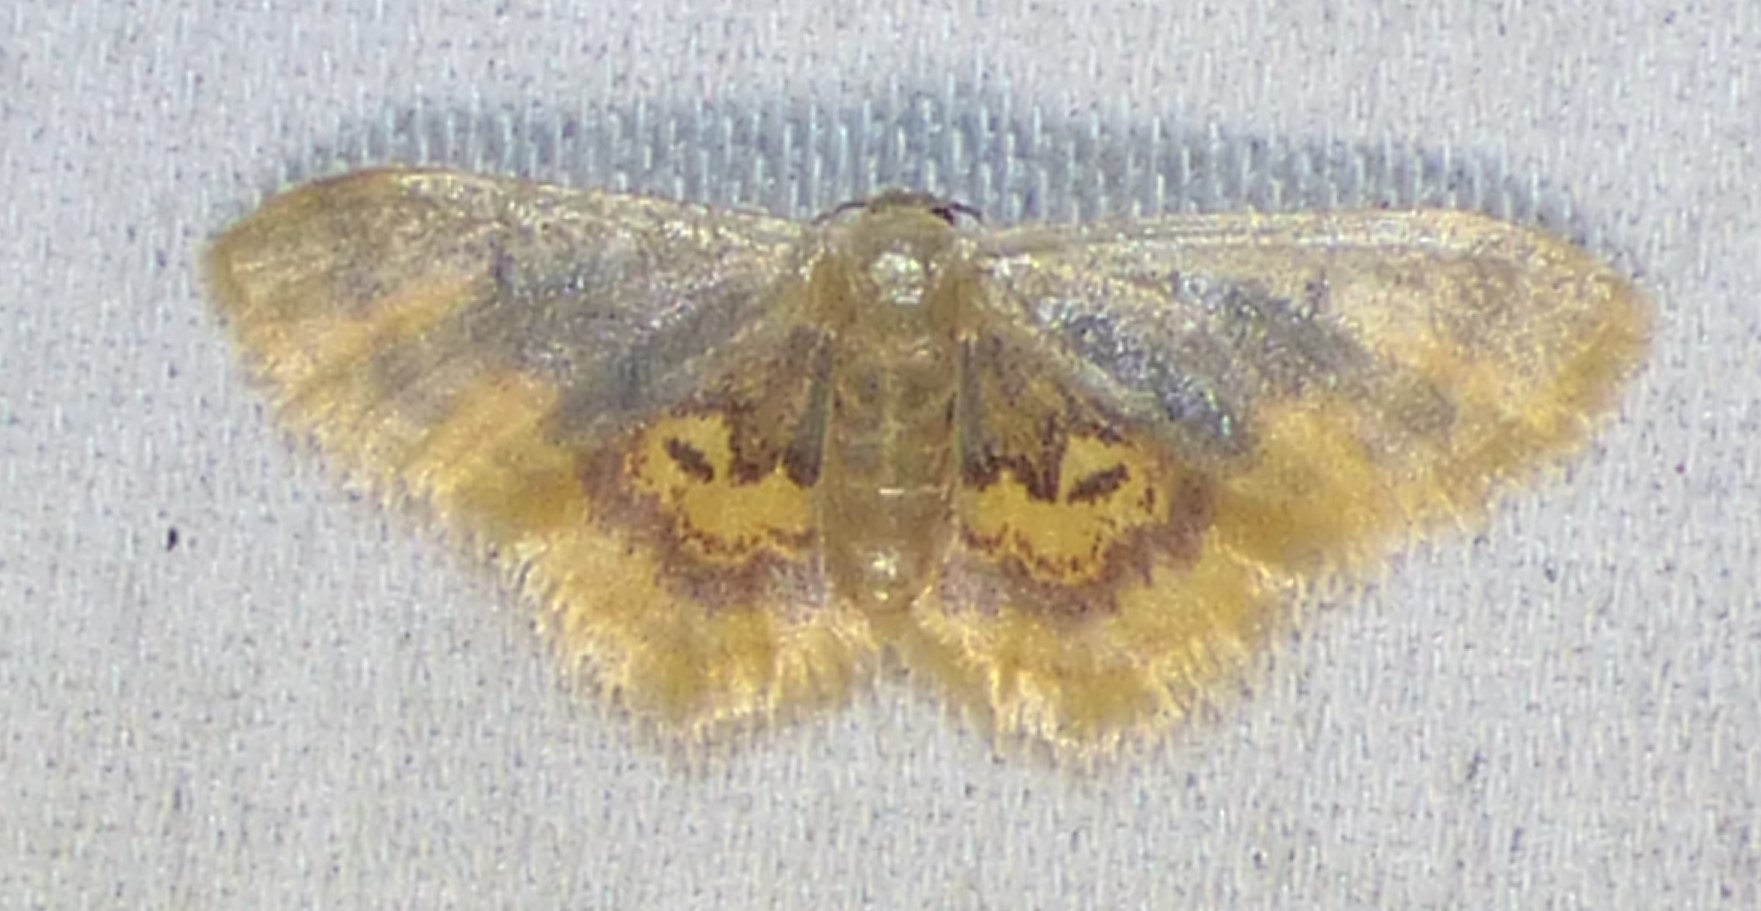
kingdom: Animalia
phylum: Arthropoda
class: Insecta
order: Lepidoptera
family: Geometridae
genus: Idaea
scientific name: Idaea scintillularia
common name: Diminutive wave
